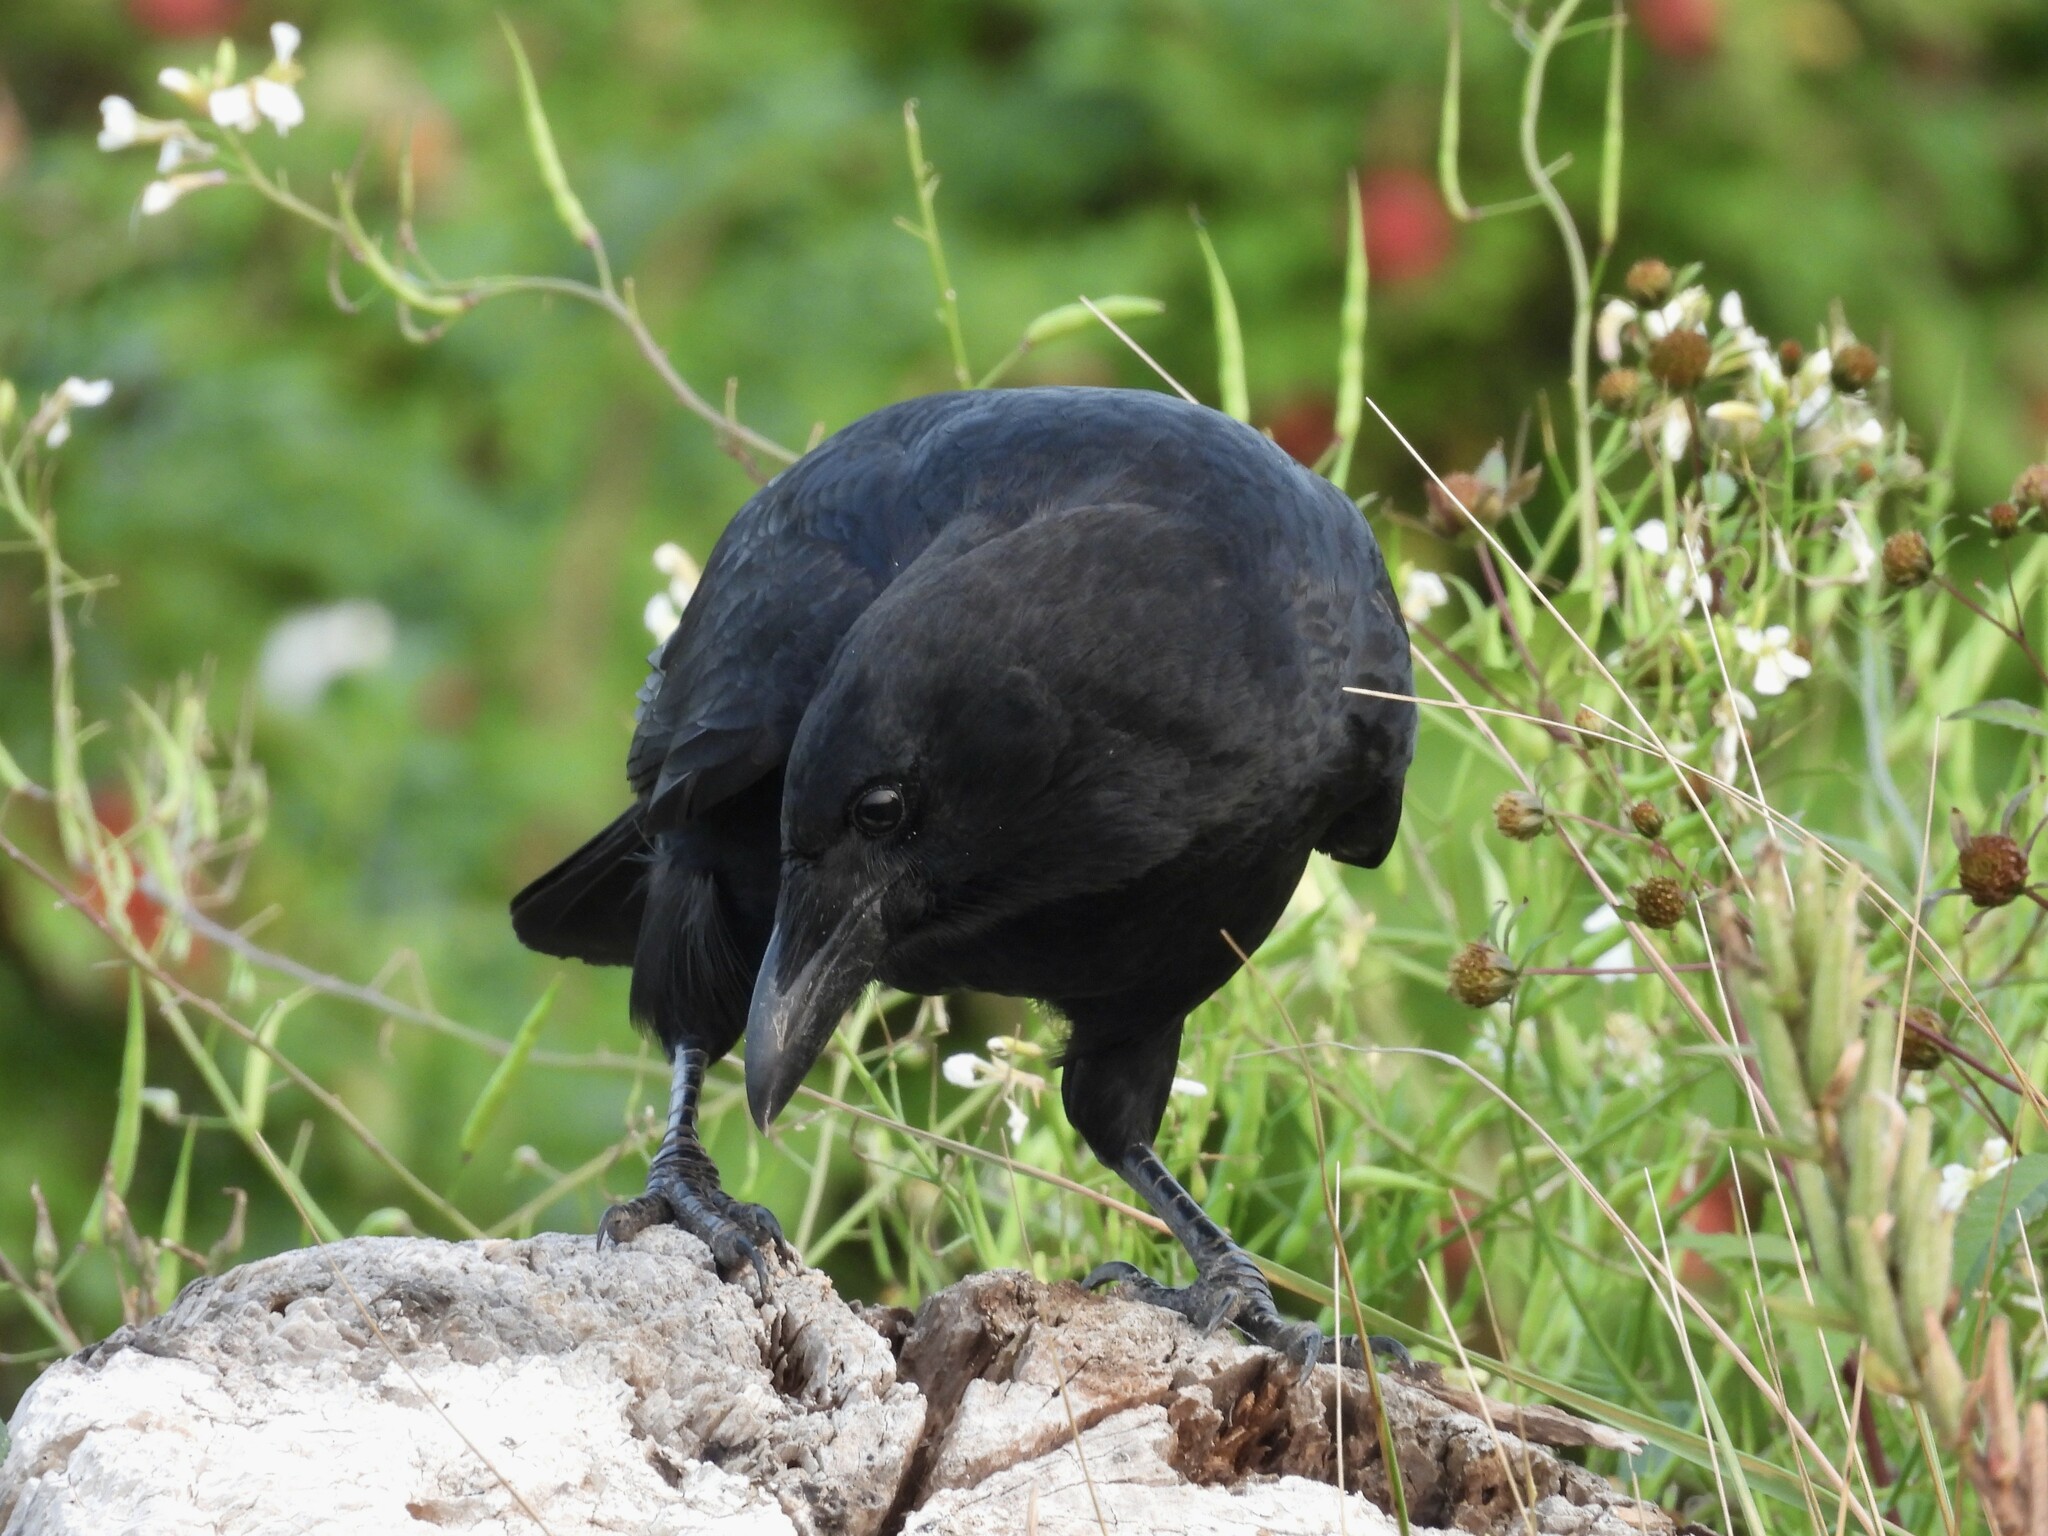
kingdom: Animalia
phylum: Chordata
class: Aves
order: Passeriformes
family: Corvidae
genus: Corvus
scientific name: Corvus brachyrhynchos
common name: American crow
